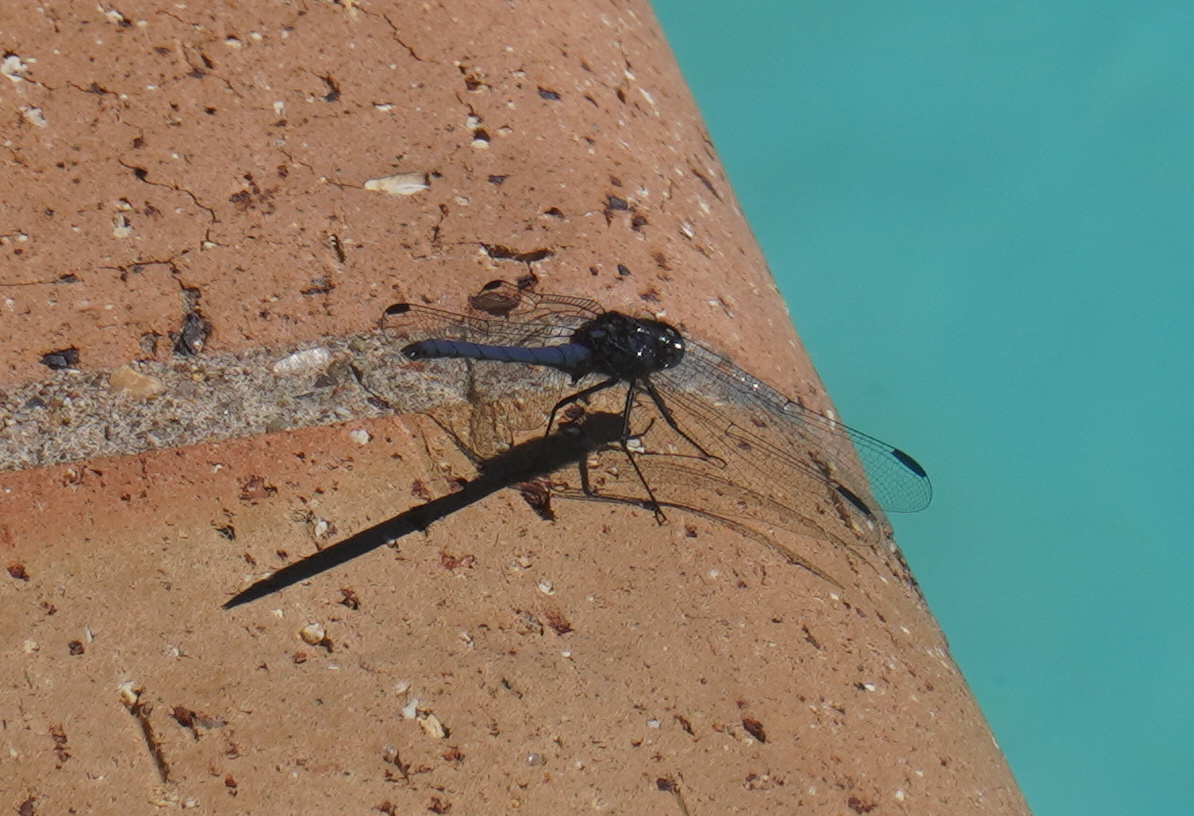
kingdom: Animalia
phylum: Arthropoda
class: Insecta
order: Odonata
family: Libellulidae
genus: Trithemis
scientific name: Trithemis furva
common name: Dark dropwing
